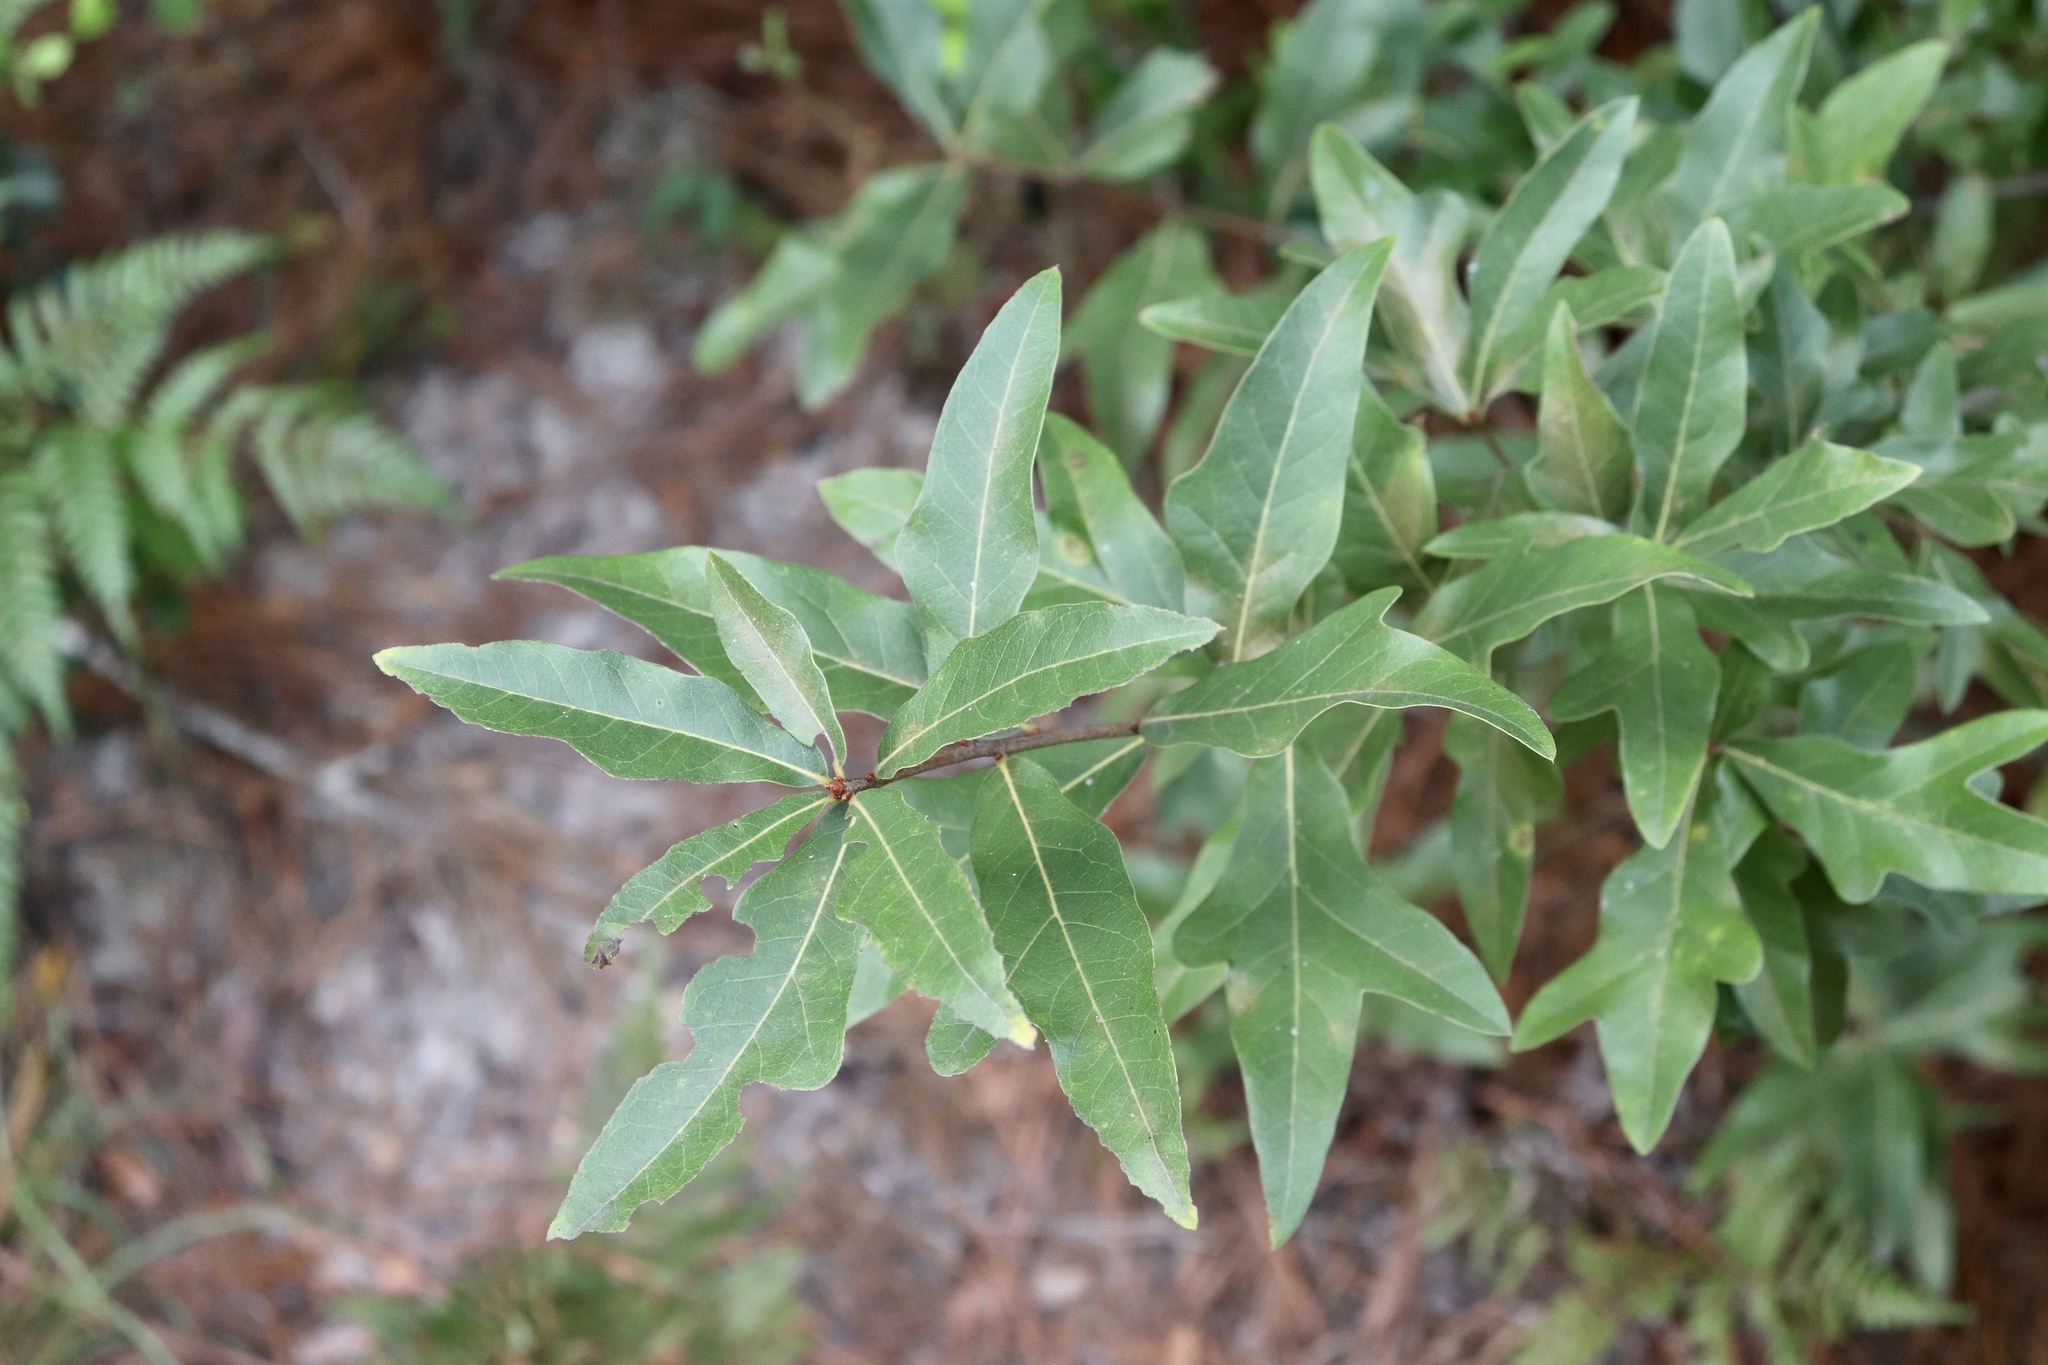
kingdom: Plantae
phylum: Tracheophyta
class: Magnoliopsida
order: Fagales
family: Fagaceae
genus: Quercus
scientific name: Quercus hemisphaerica
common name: Darlington oak
